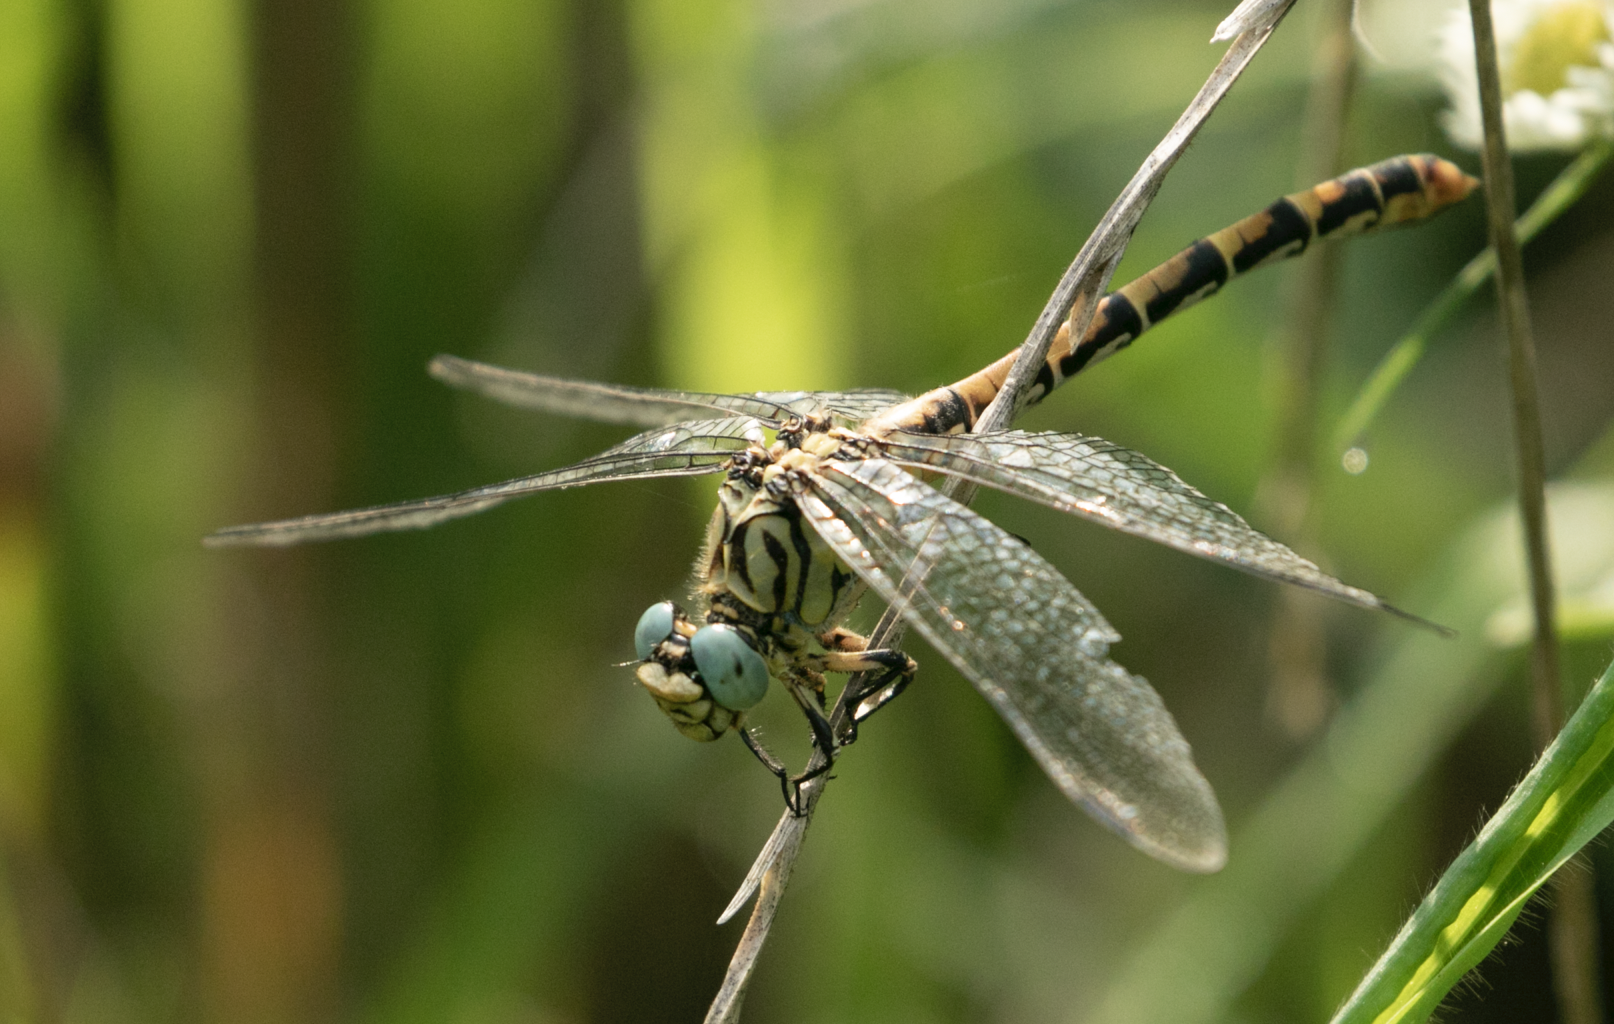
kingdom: Animalia
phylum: Arthropoda
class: Insecta
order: Odonata
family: Gomphidae
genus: Onychogomphus
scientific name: Onychogomphus forcipatus
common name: Small pincertail
